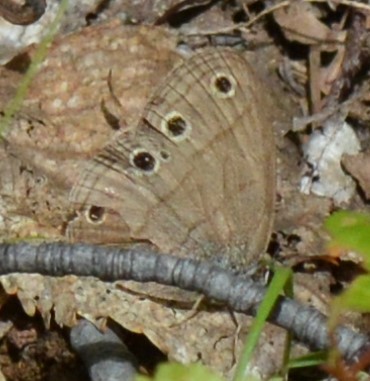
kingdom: Animalia
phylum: Arthropoda
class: Insecta
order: Lepidoptera
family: Nymphalidae
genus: Euptychia
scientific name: Euptychia cymela
